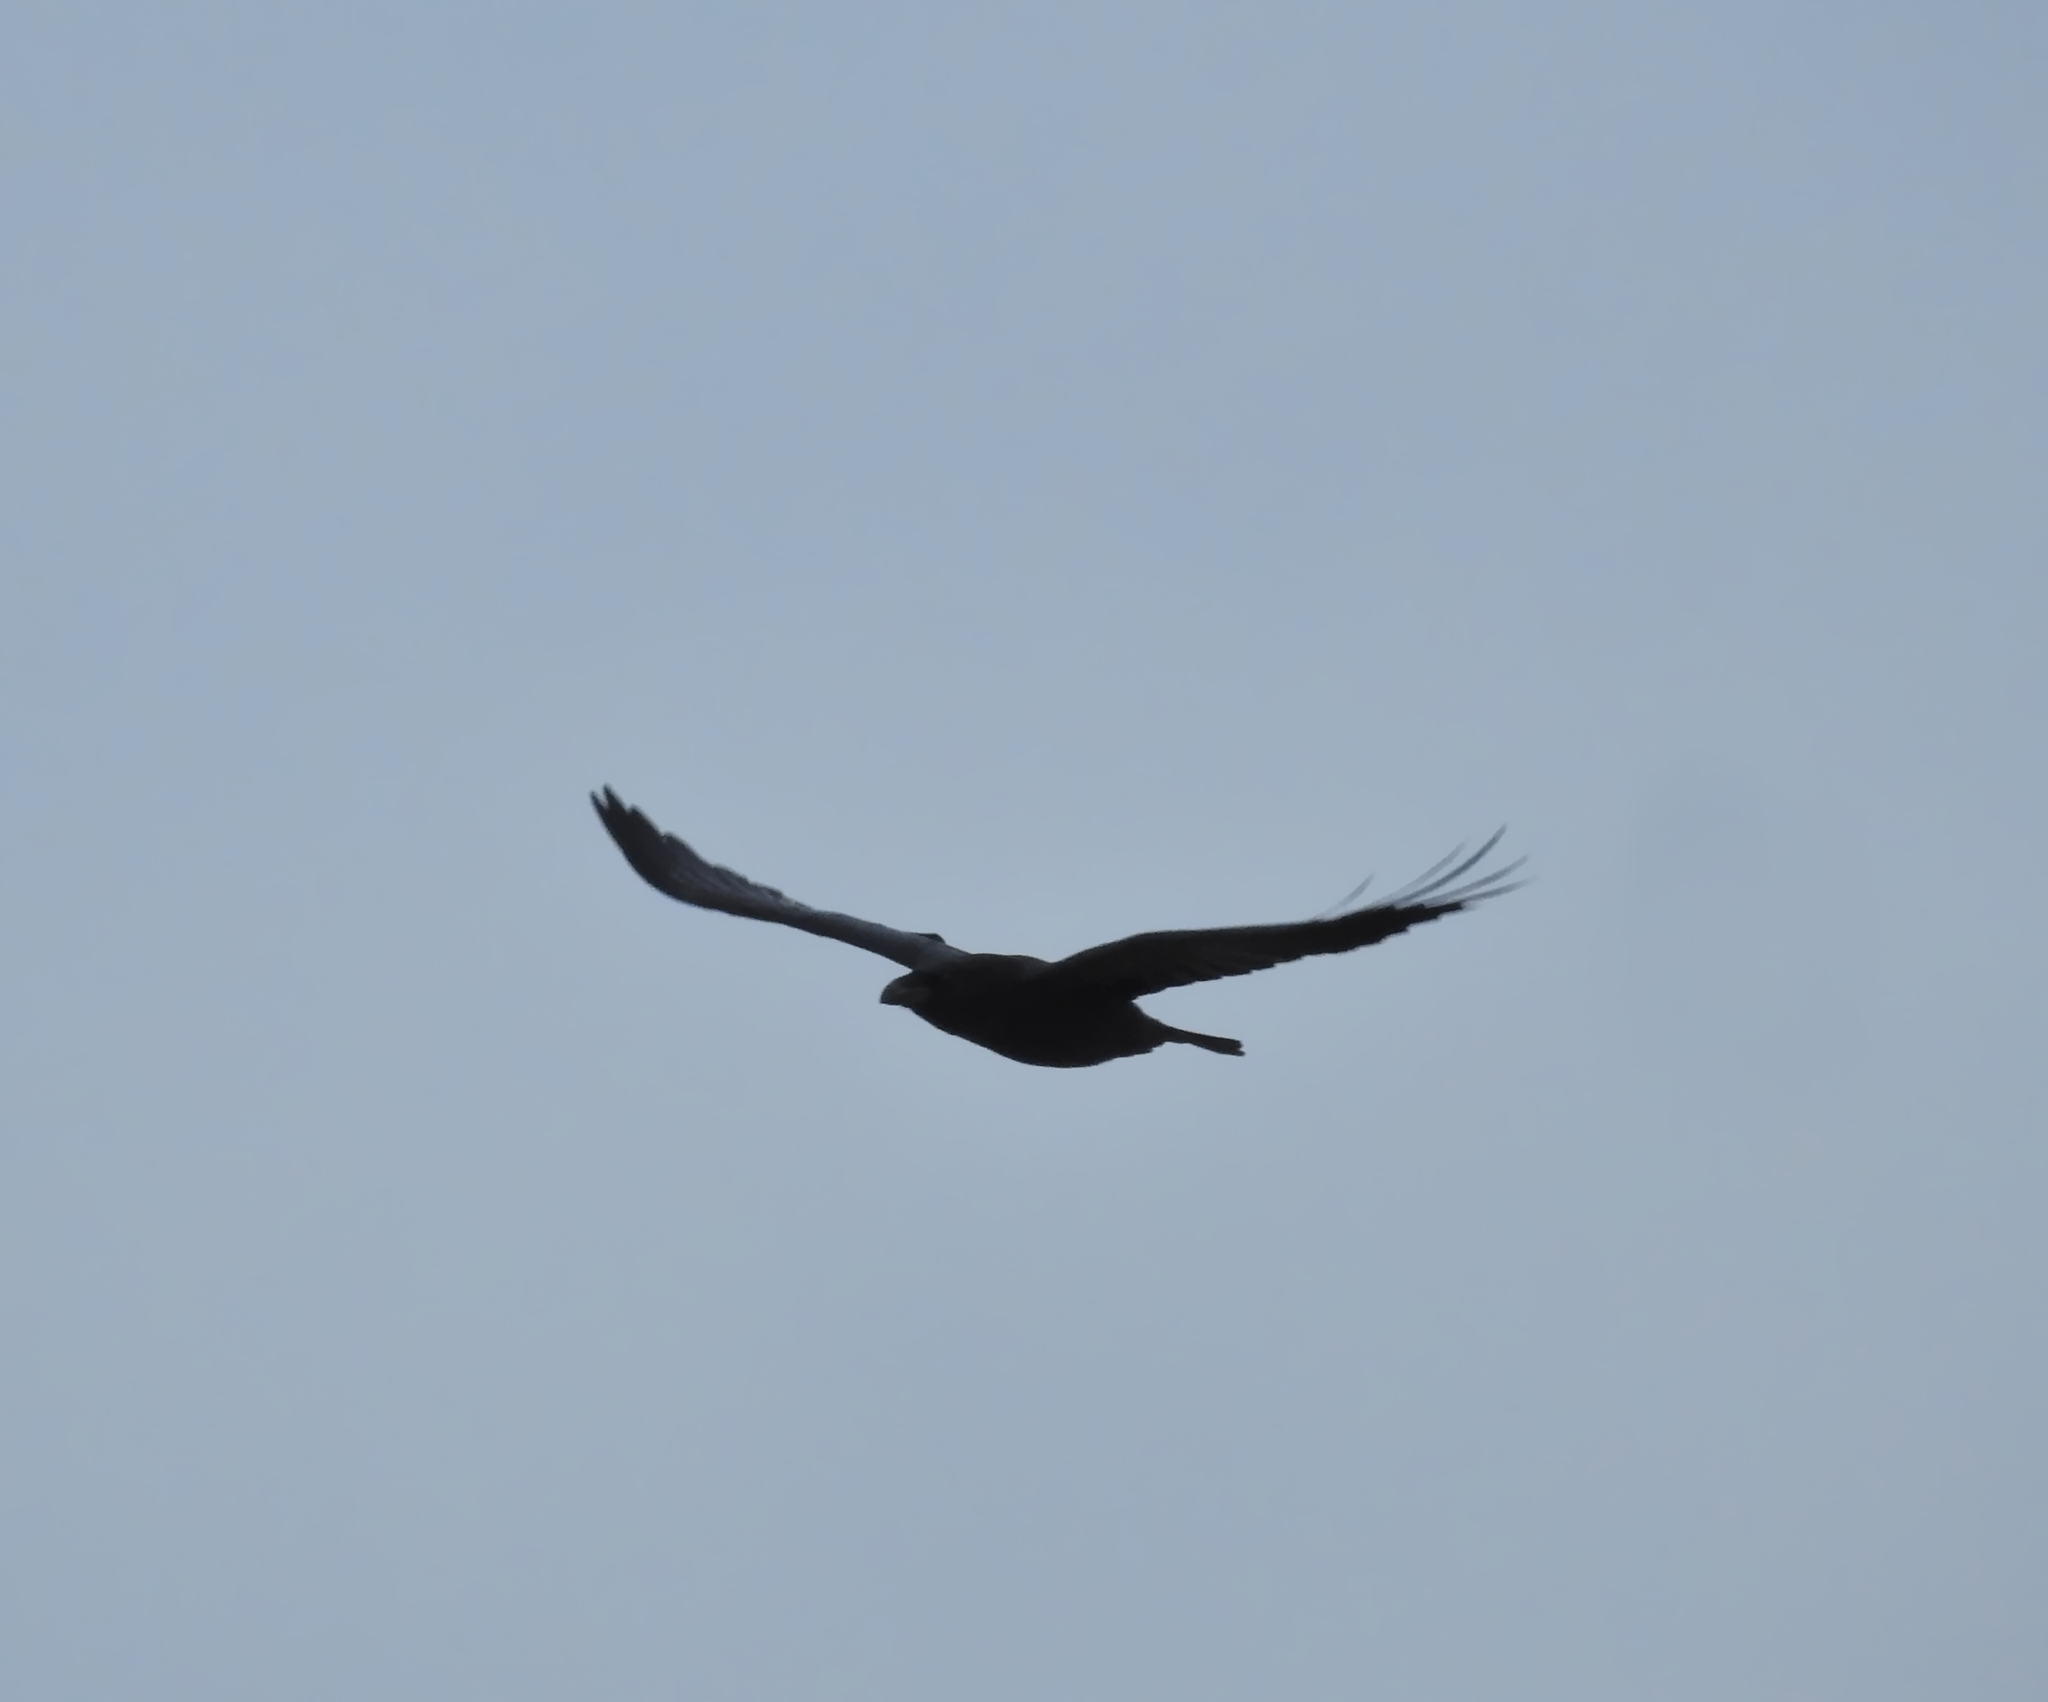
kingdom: Animalia
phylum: Chordata
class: Aves
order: Passeriformes
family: Corvidae
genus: Corvus
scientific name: Corvus corax
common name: Common raven
